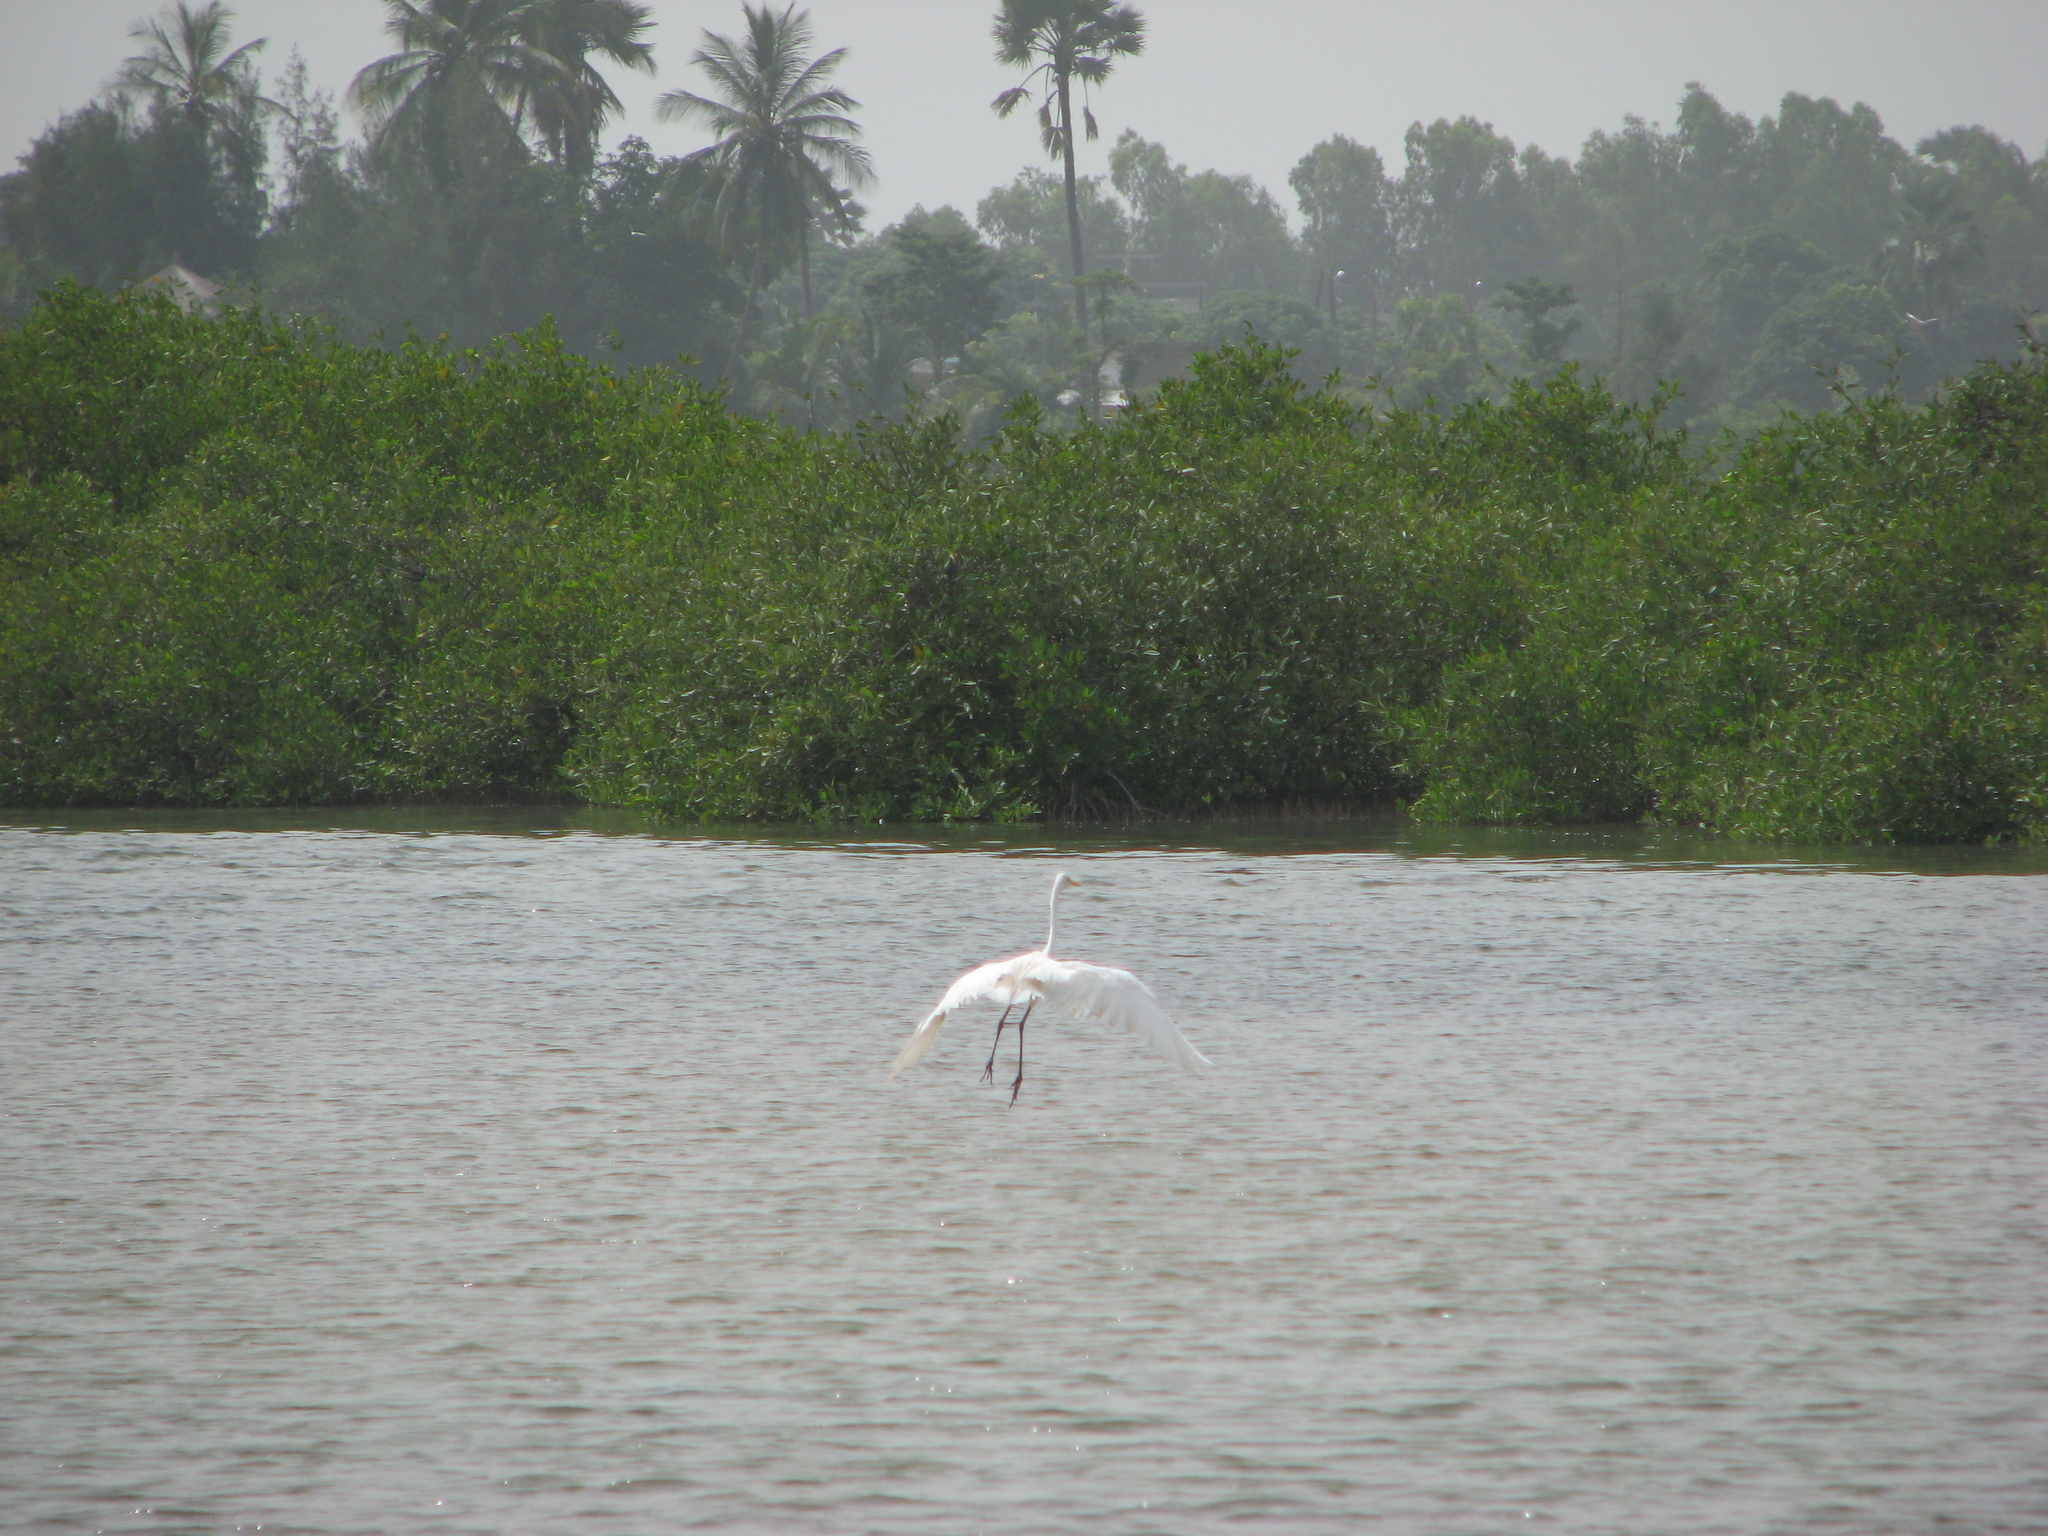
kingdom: Animalia
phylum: Chordata
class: Aves
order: Pelecaniformes
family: Ardeidae
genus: Ardea
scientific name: Ardea alba
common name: Great egret
